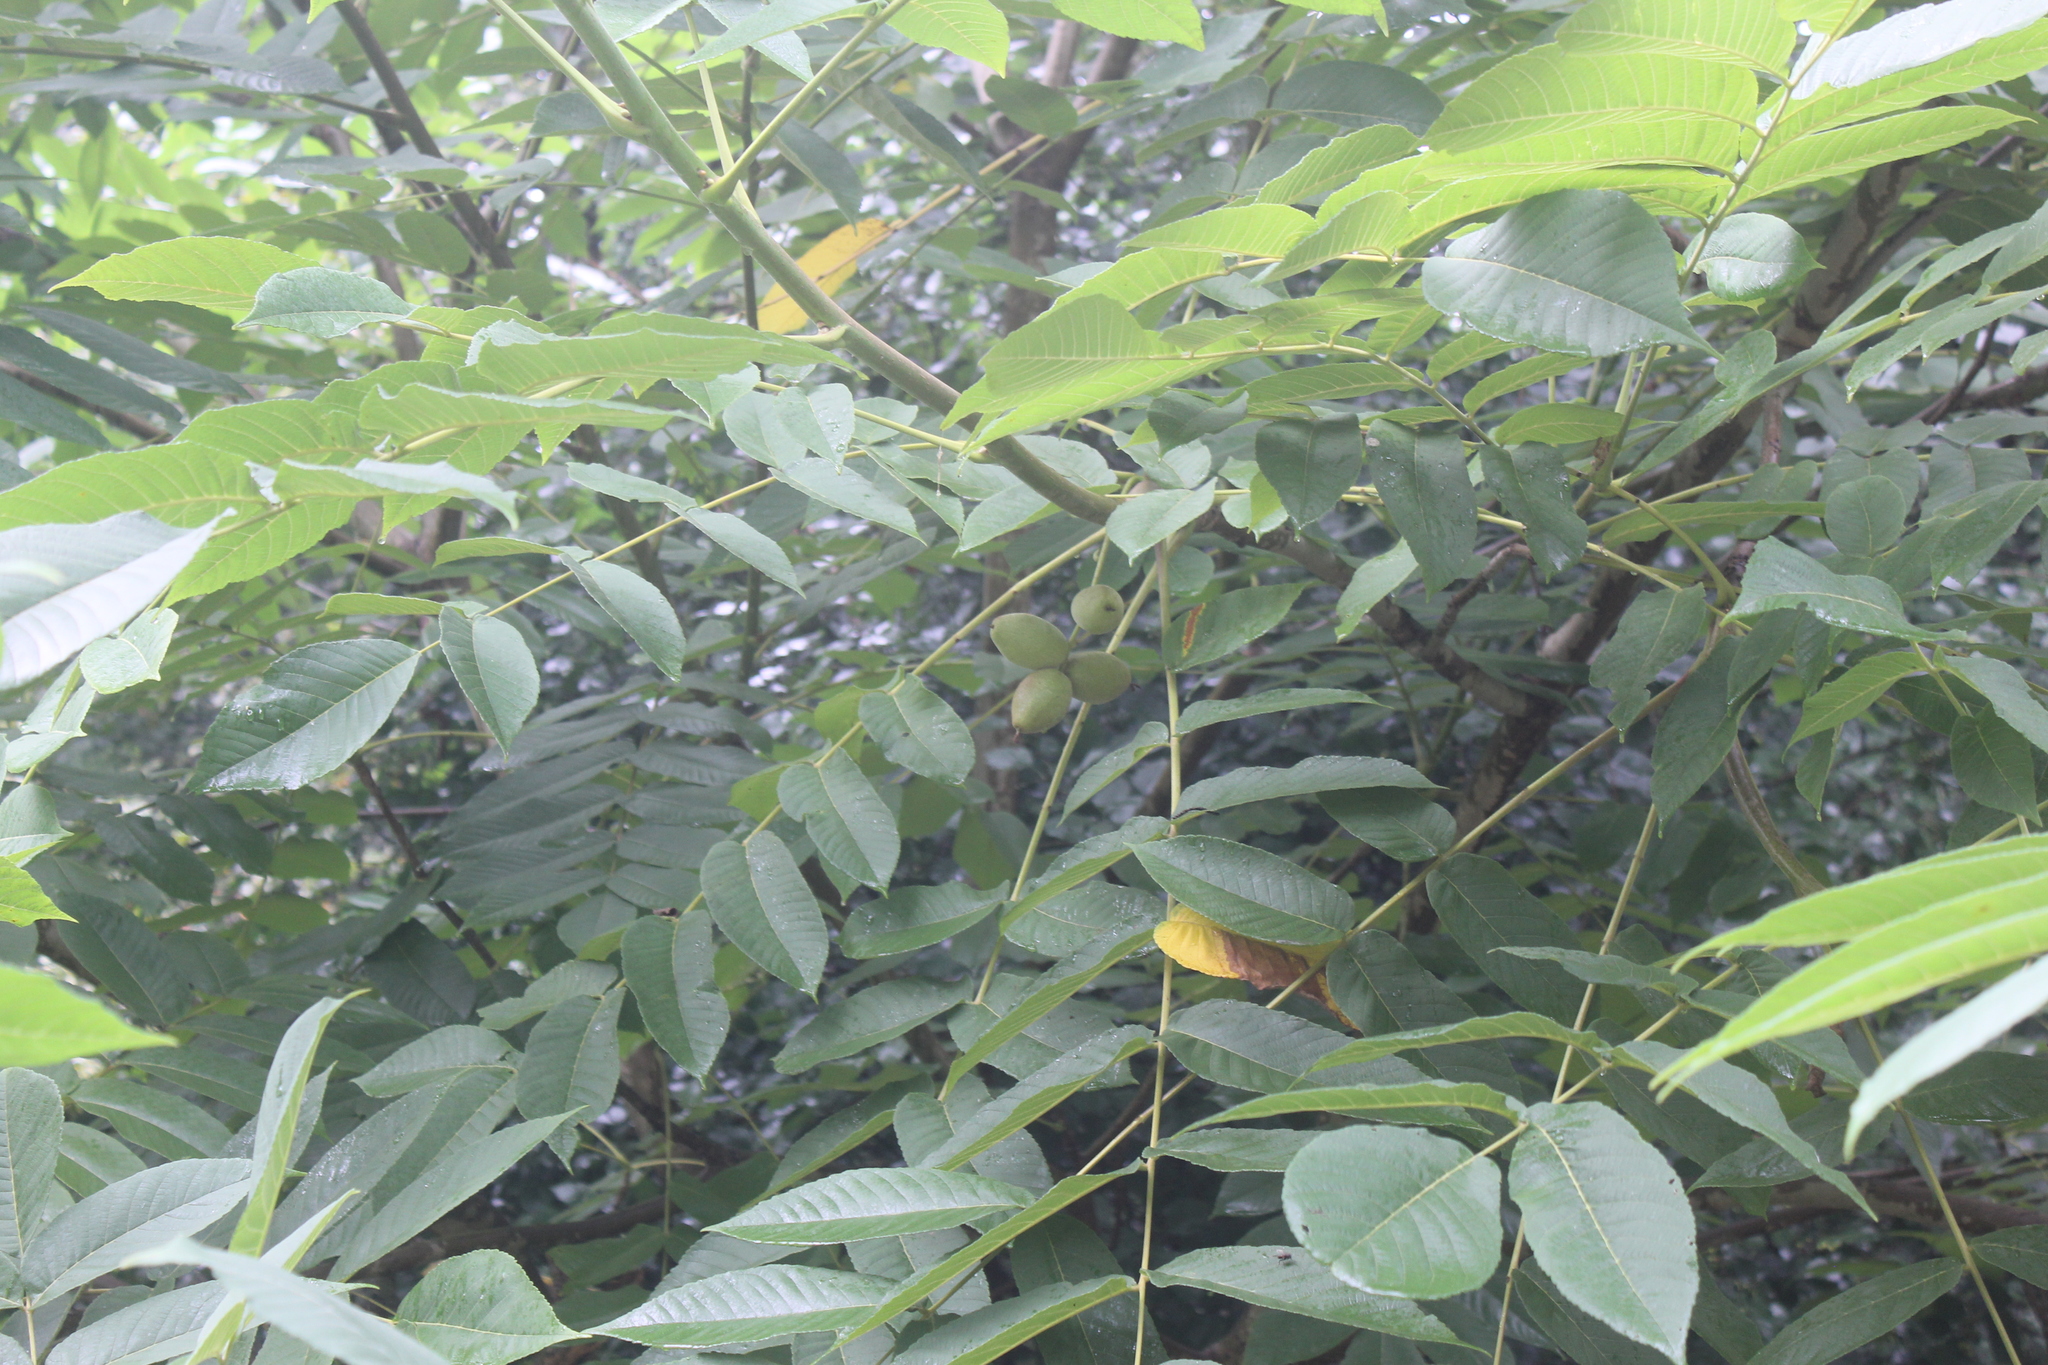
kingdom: Plantae
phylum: Tracheophyta
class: Magnoliopsida
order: Fagales
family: Juglandaceae
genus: Juglans
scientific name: Juglans mandshurica
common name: Manchurian walnut
